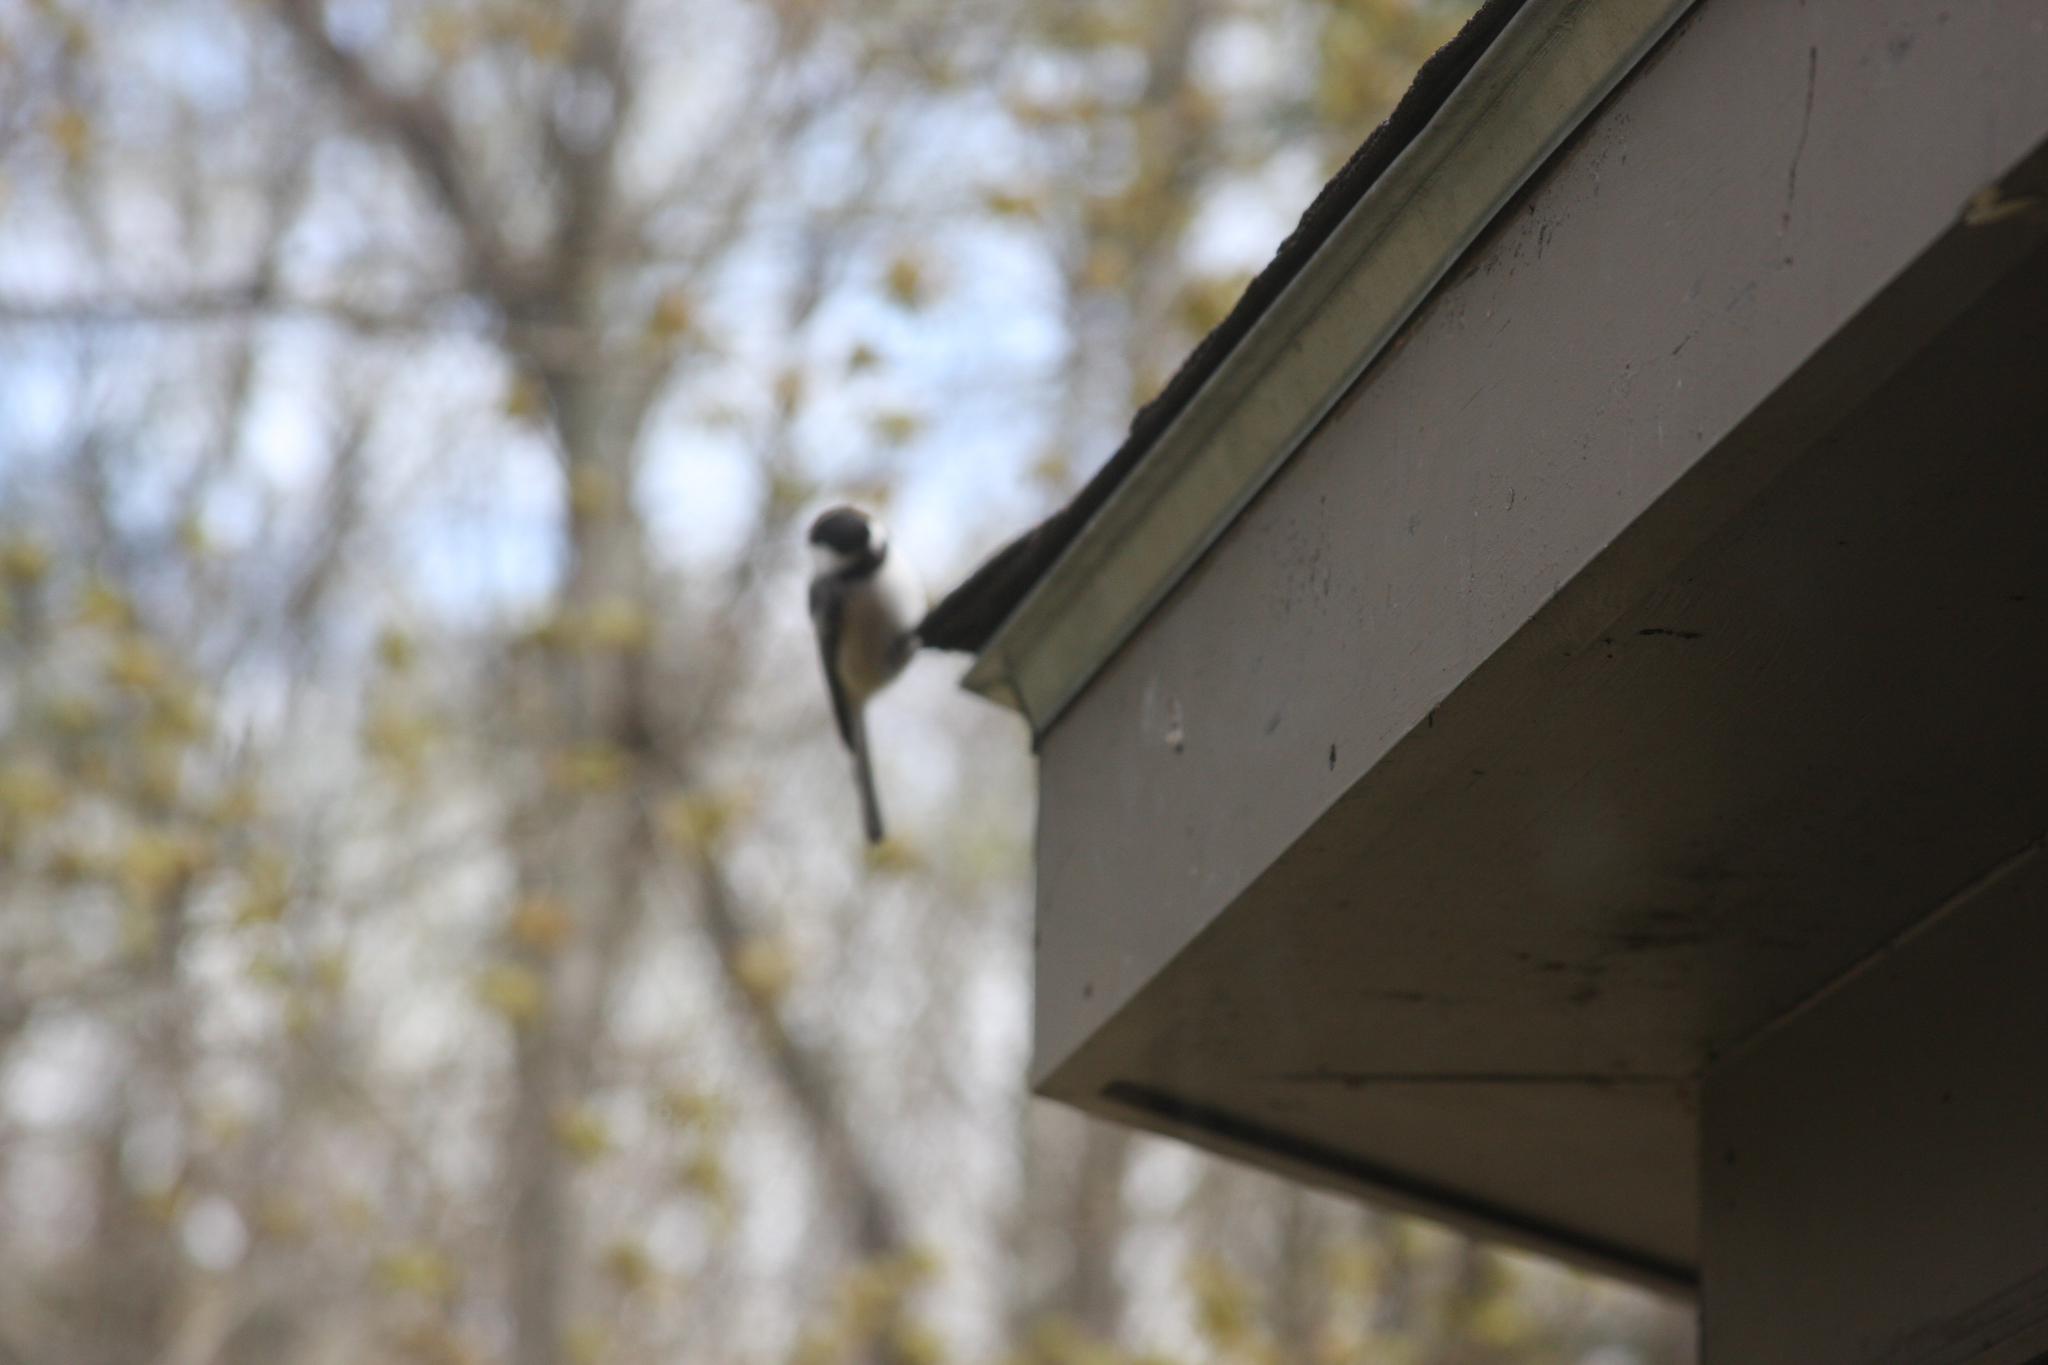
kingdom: Animalia
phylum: Chordata
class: Aves
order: Passeriformes
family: Paridae
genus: Poecile
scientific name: Poecile atricapillus
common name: Black-capped chickadee
